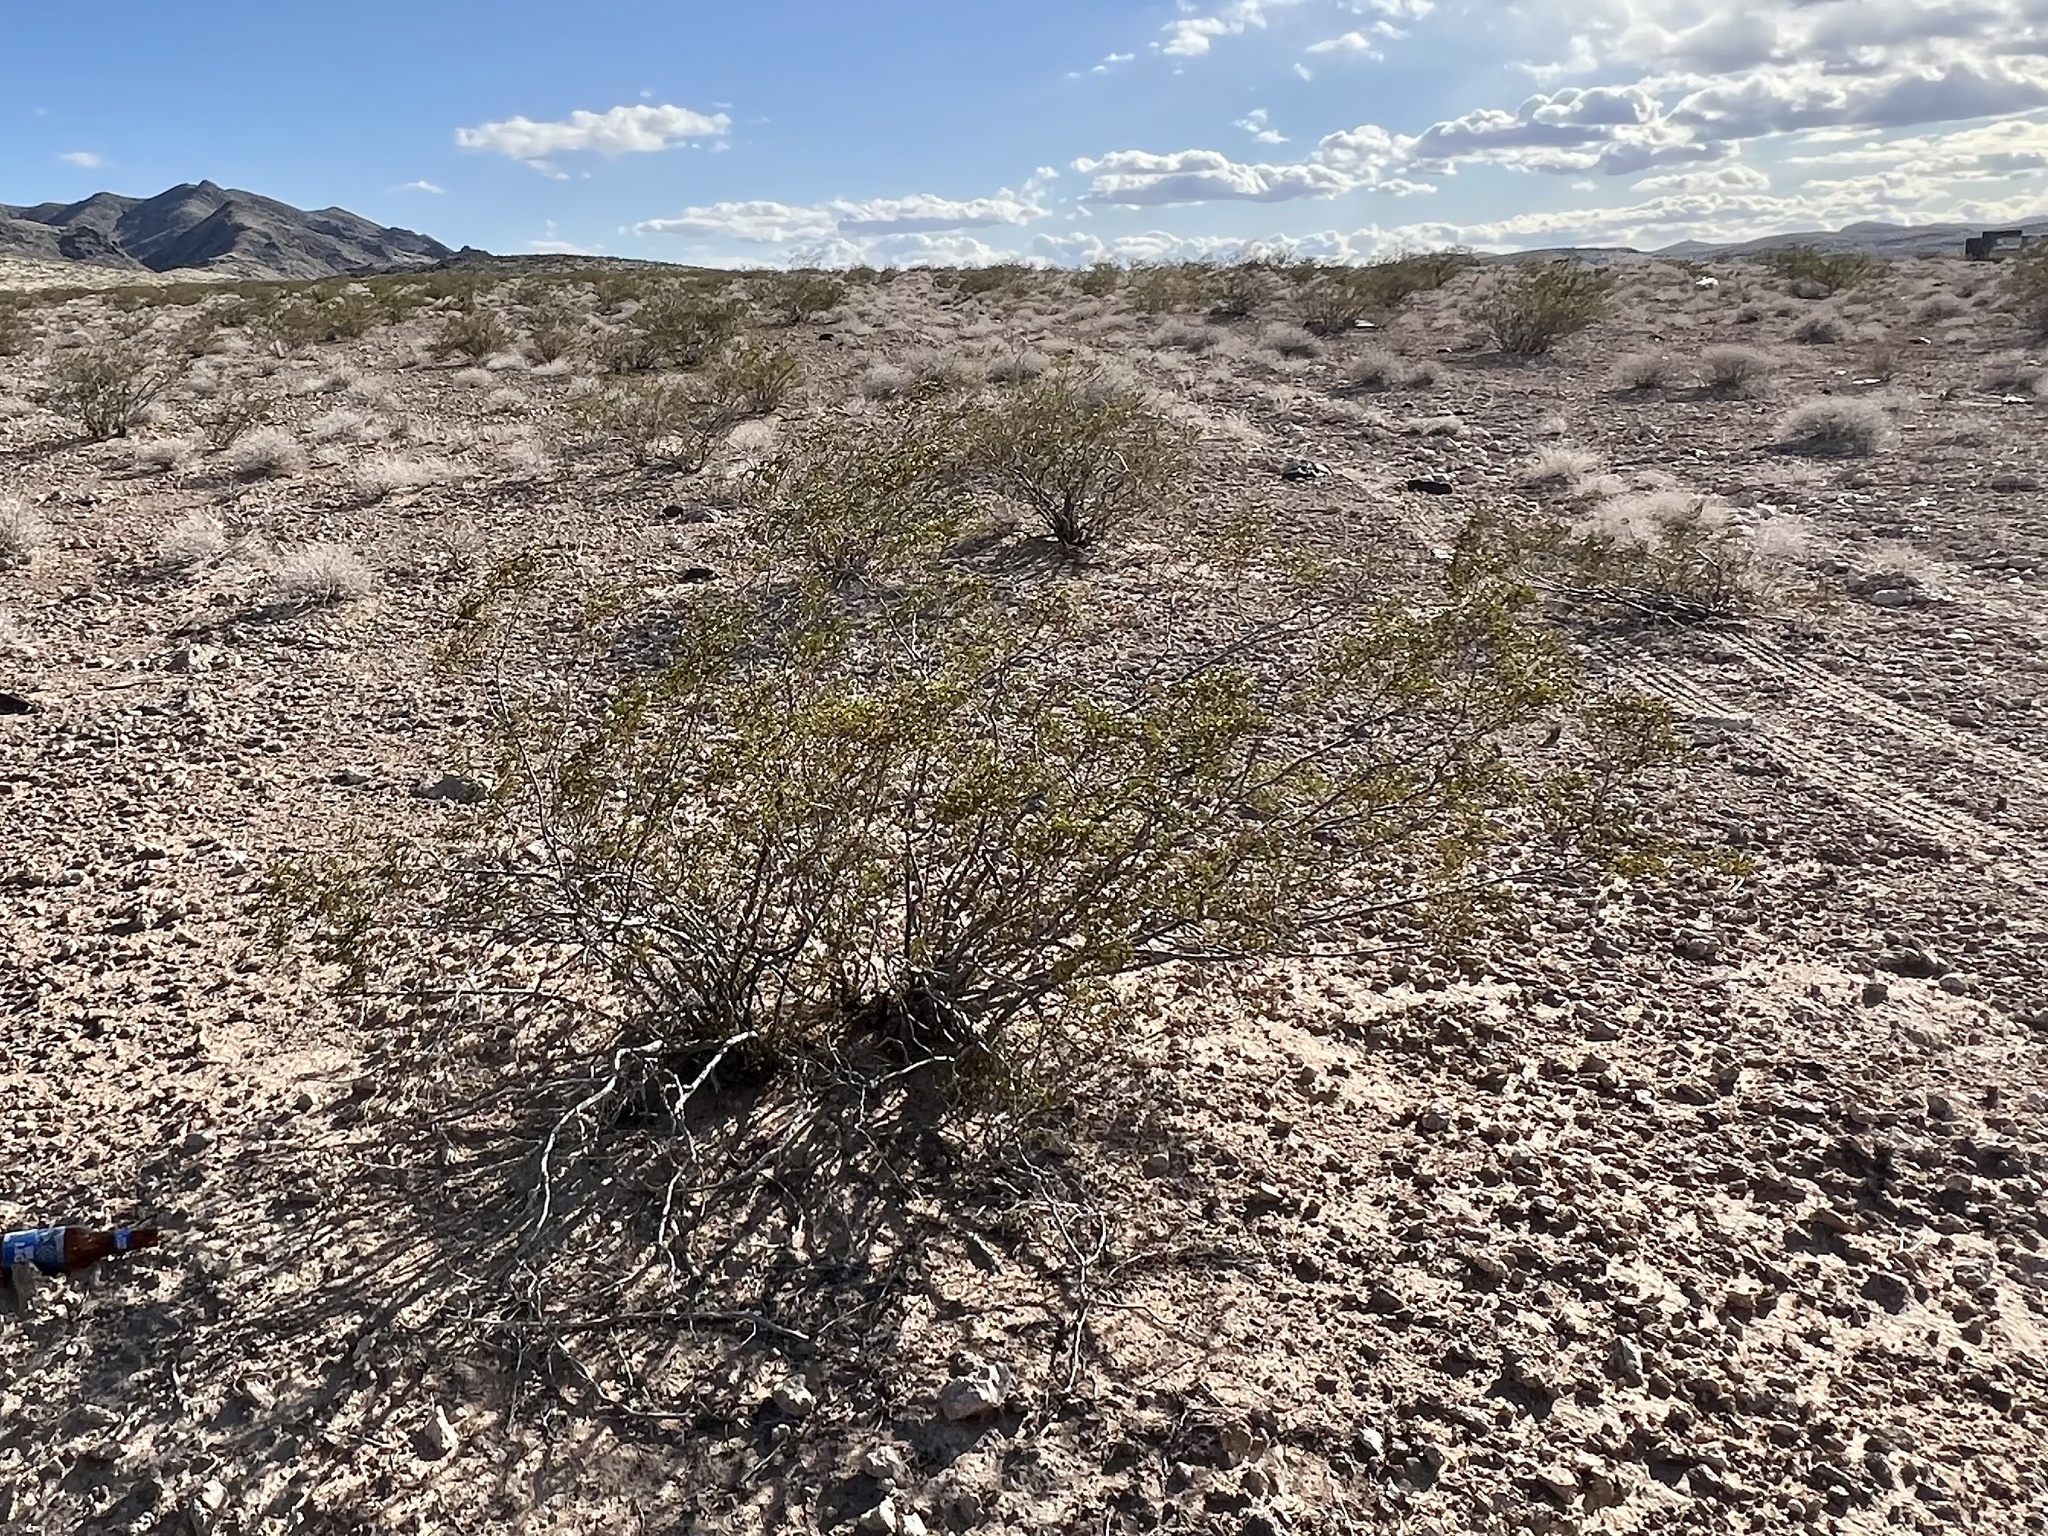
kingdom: Plantae
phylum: Tracheophyta
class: Magnoliopsida
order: Zygophyllales
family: Zygophyllaceae
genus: Larrea
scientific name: Larrea tridentata
